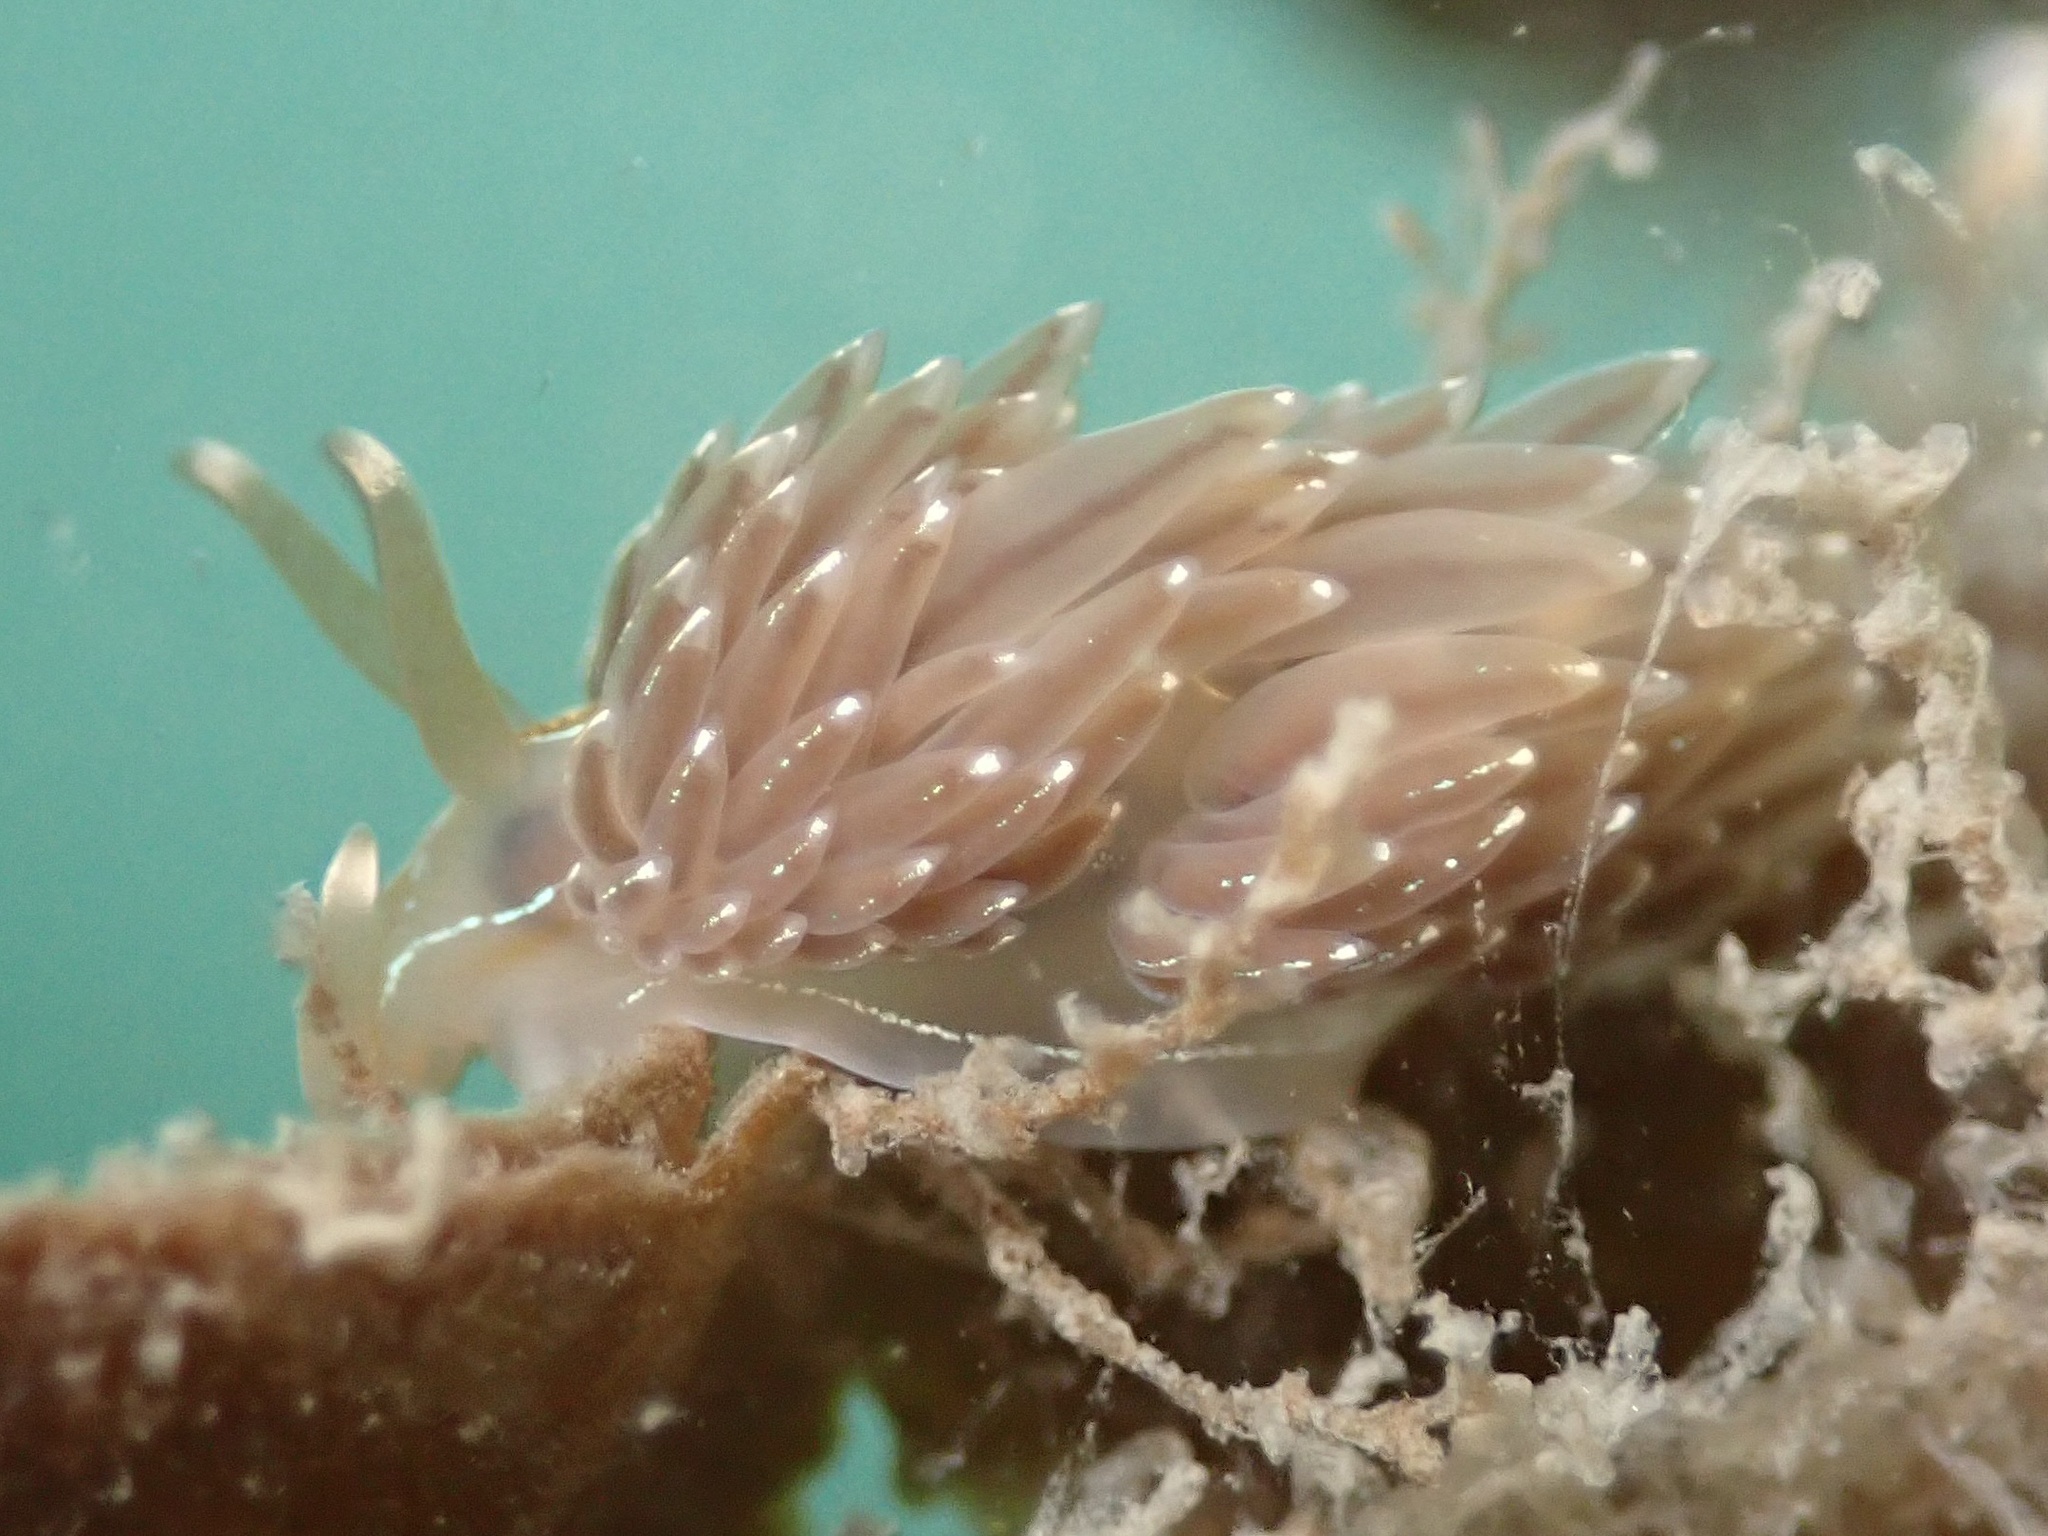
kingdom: Animalia
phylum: Mollusca
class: Gastropoda
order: Nudibranchia
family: Myrrhinidae
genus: Hermissenda
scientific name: Hermissenda crassicornis
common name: Hermissenda
